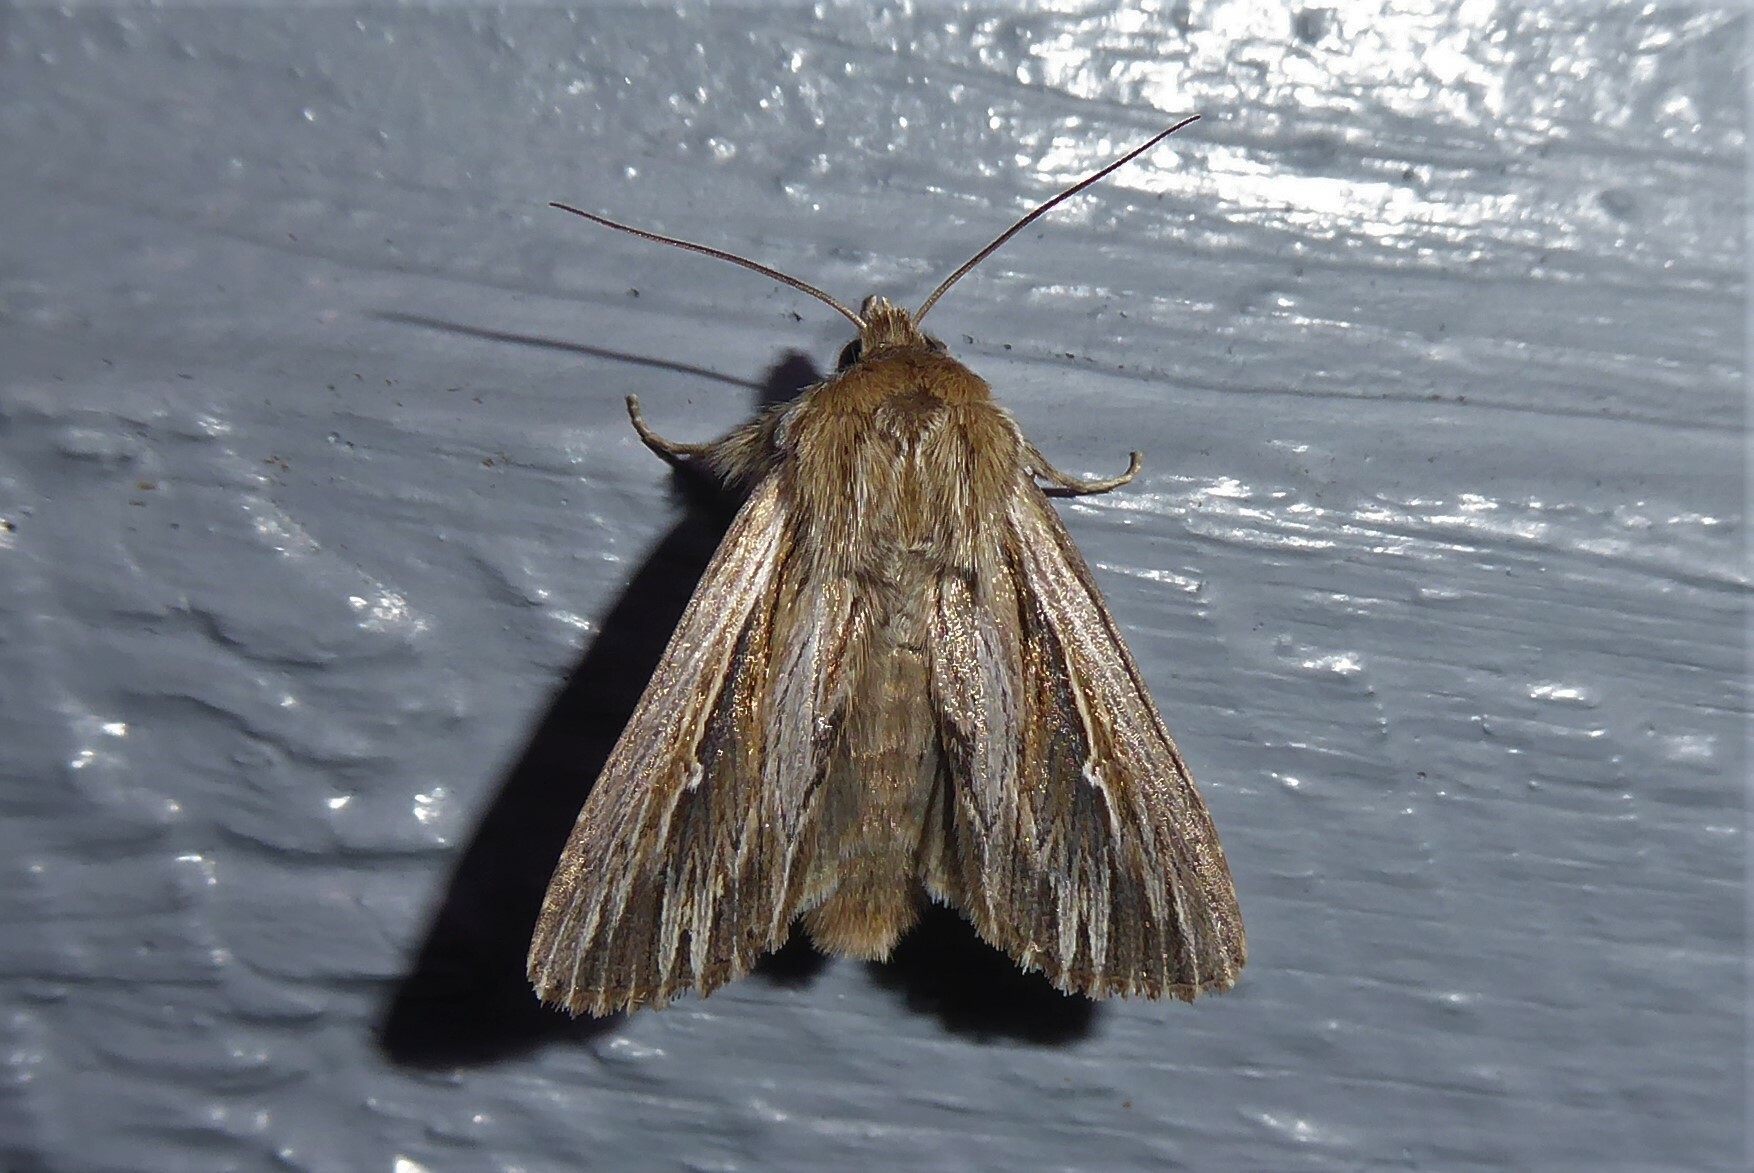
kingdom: Animalia
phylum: Arthropoda
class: Insecta
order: Lepidoptera
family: Noctuidae
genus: Persectania
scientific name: Persectania aversa
